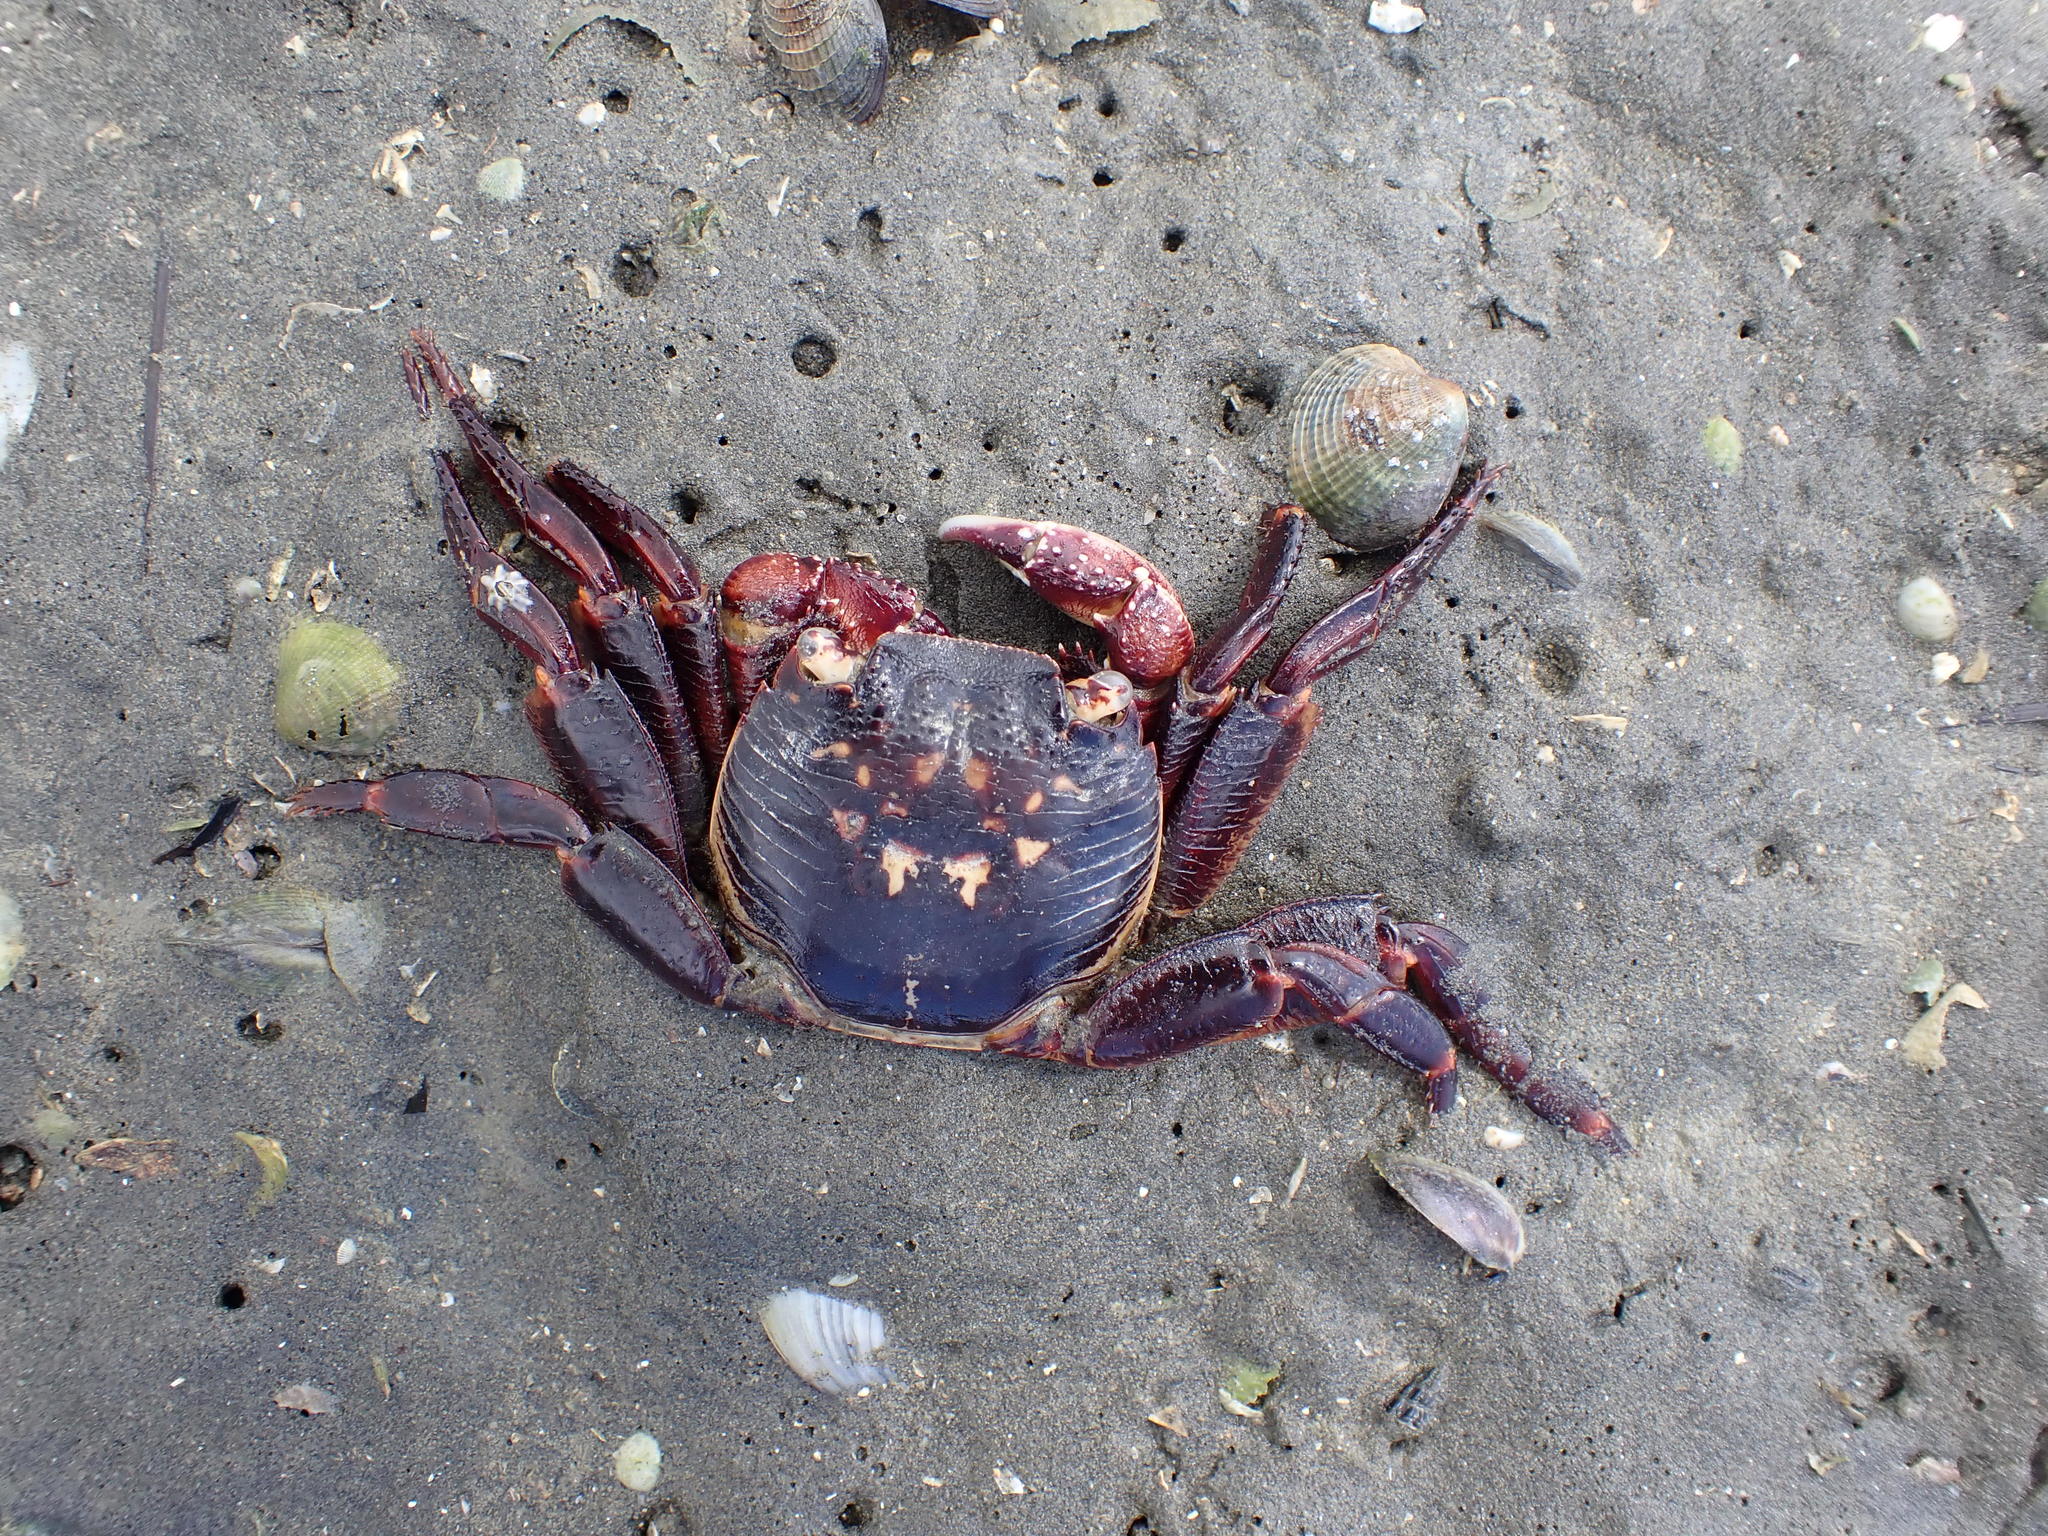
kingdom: Animalia
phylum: Arthropoda
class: Malacostraca
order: Decapoda
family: Grapsidae
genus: Leptograpsus
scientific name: Leptograpsus variegatus
